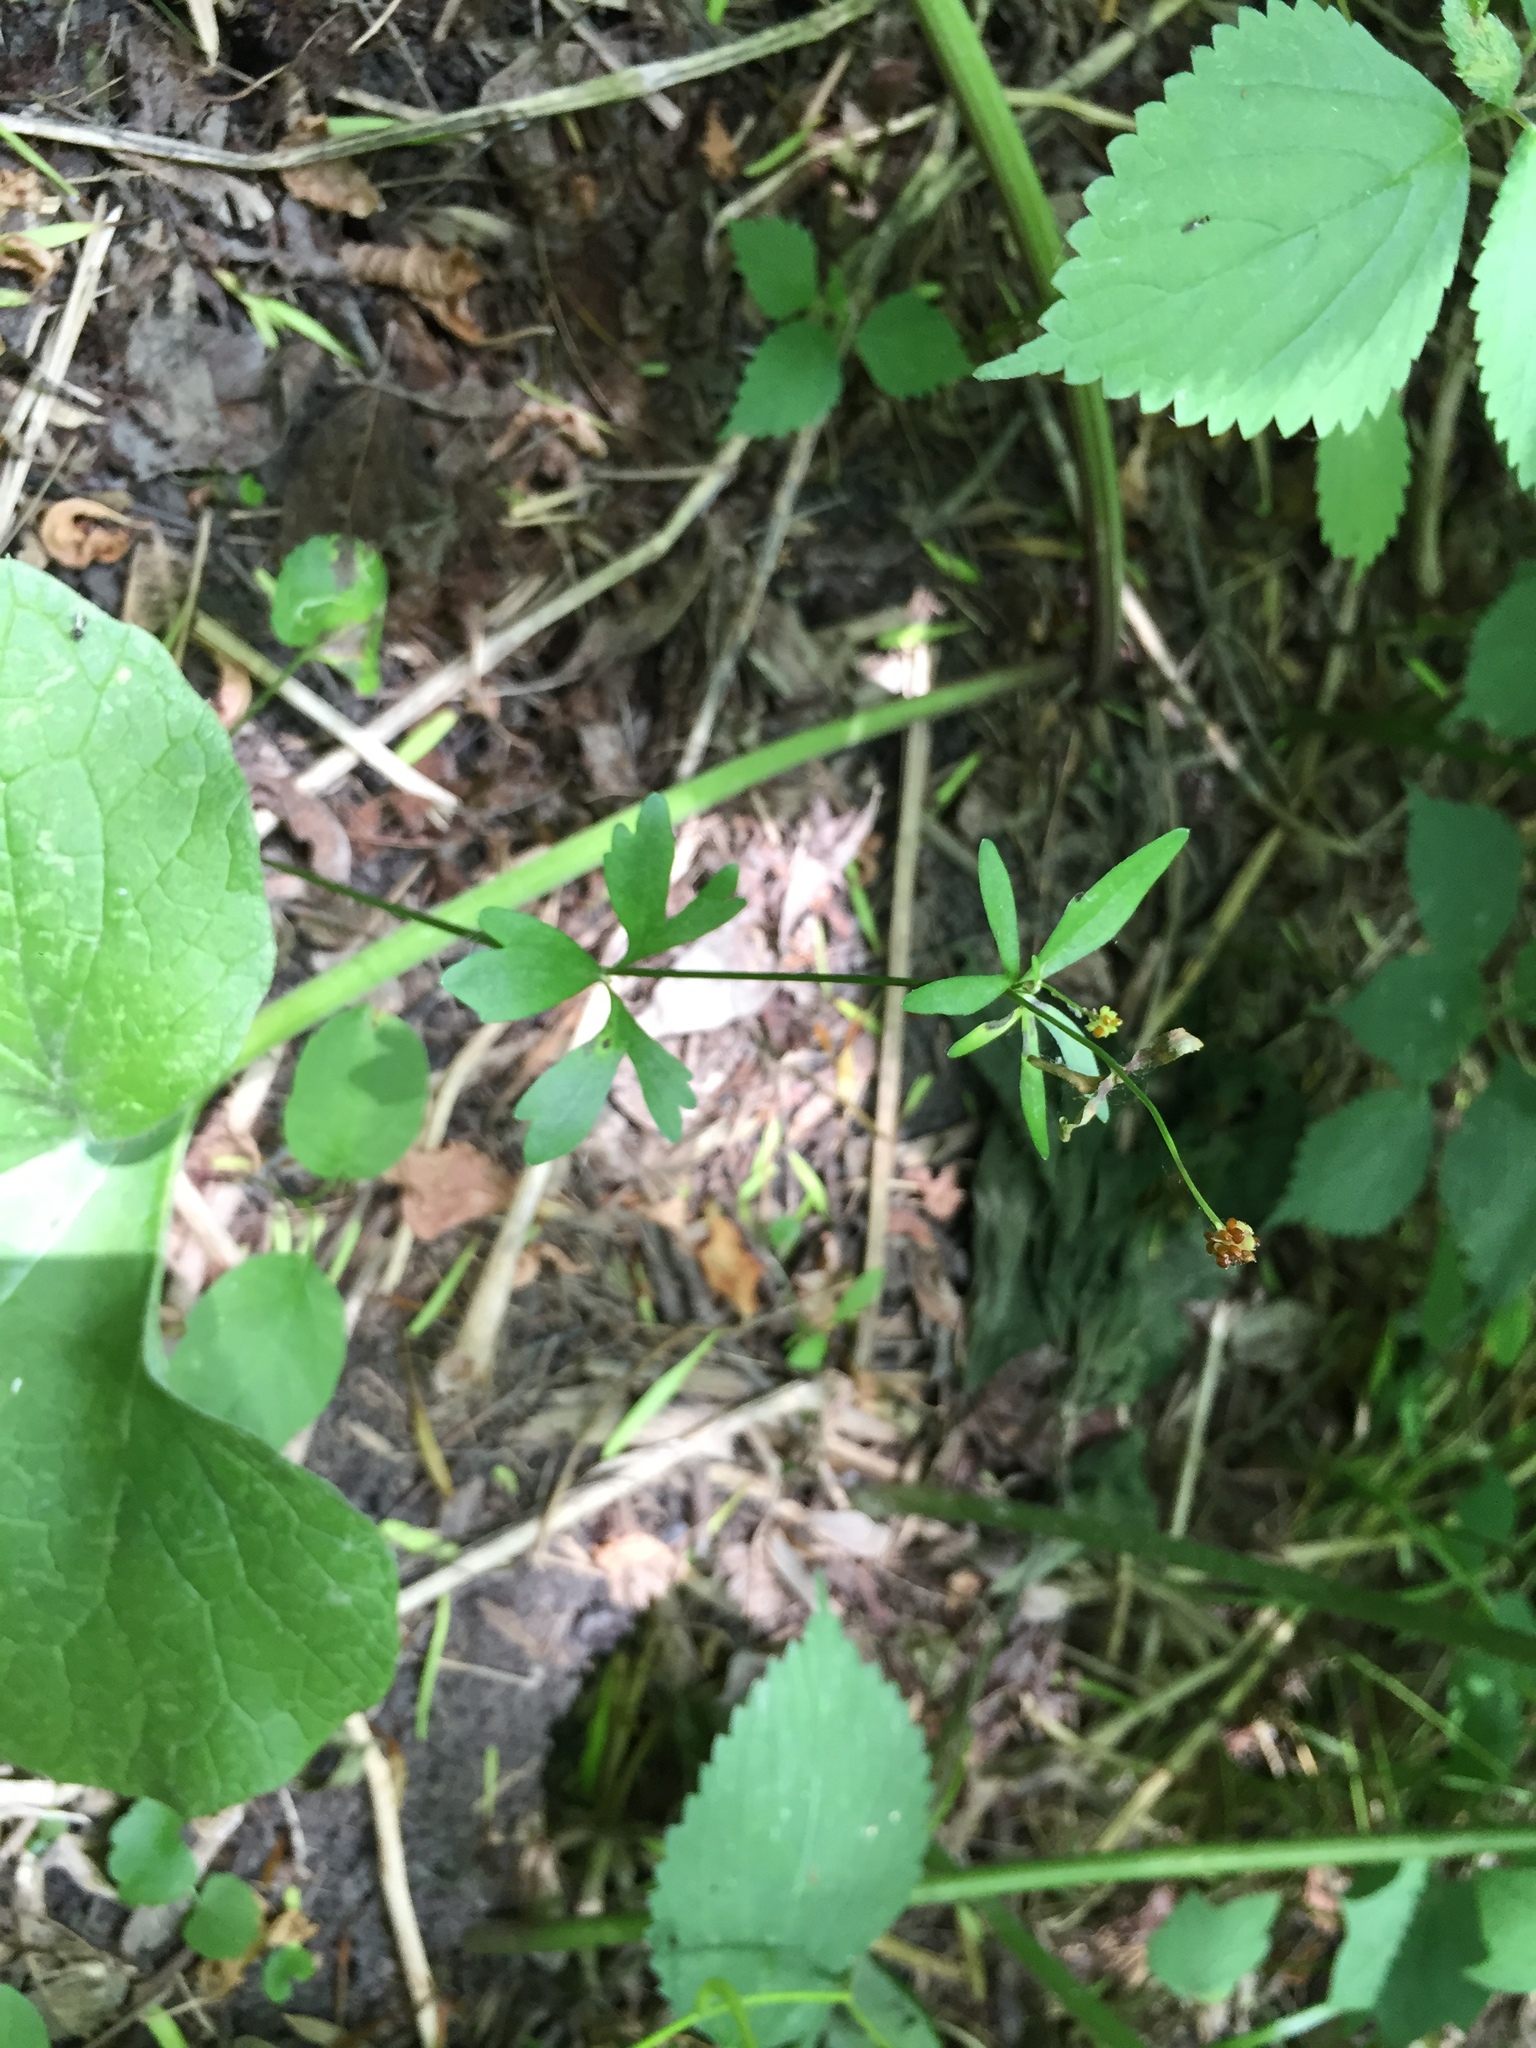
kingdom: Plantae
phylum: Tracheophyta
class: Magnoliopsida
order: Ranunculales
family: Ranunculaceae
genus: Ranunculus
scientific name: Ranunculus abortivus
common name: Early wood buttercup
